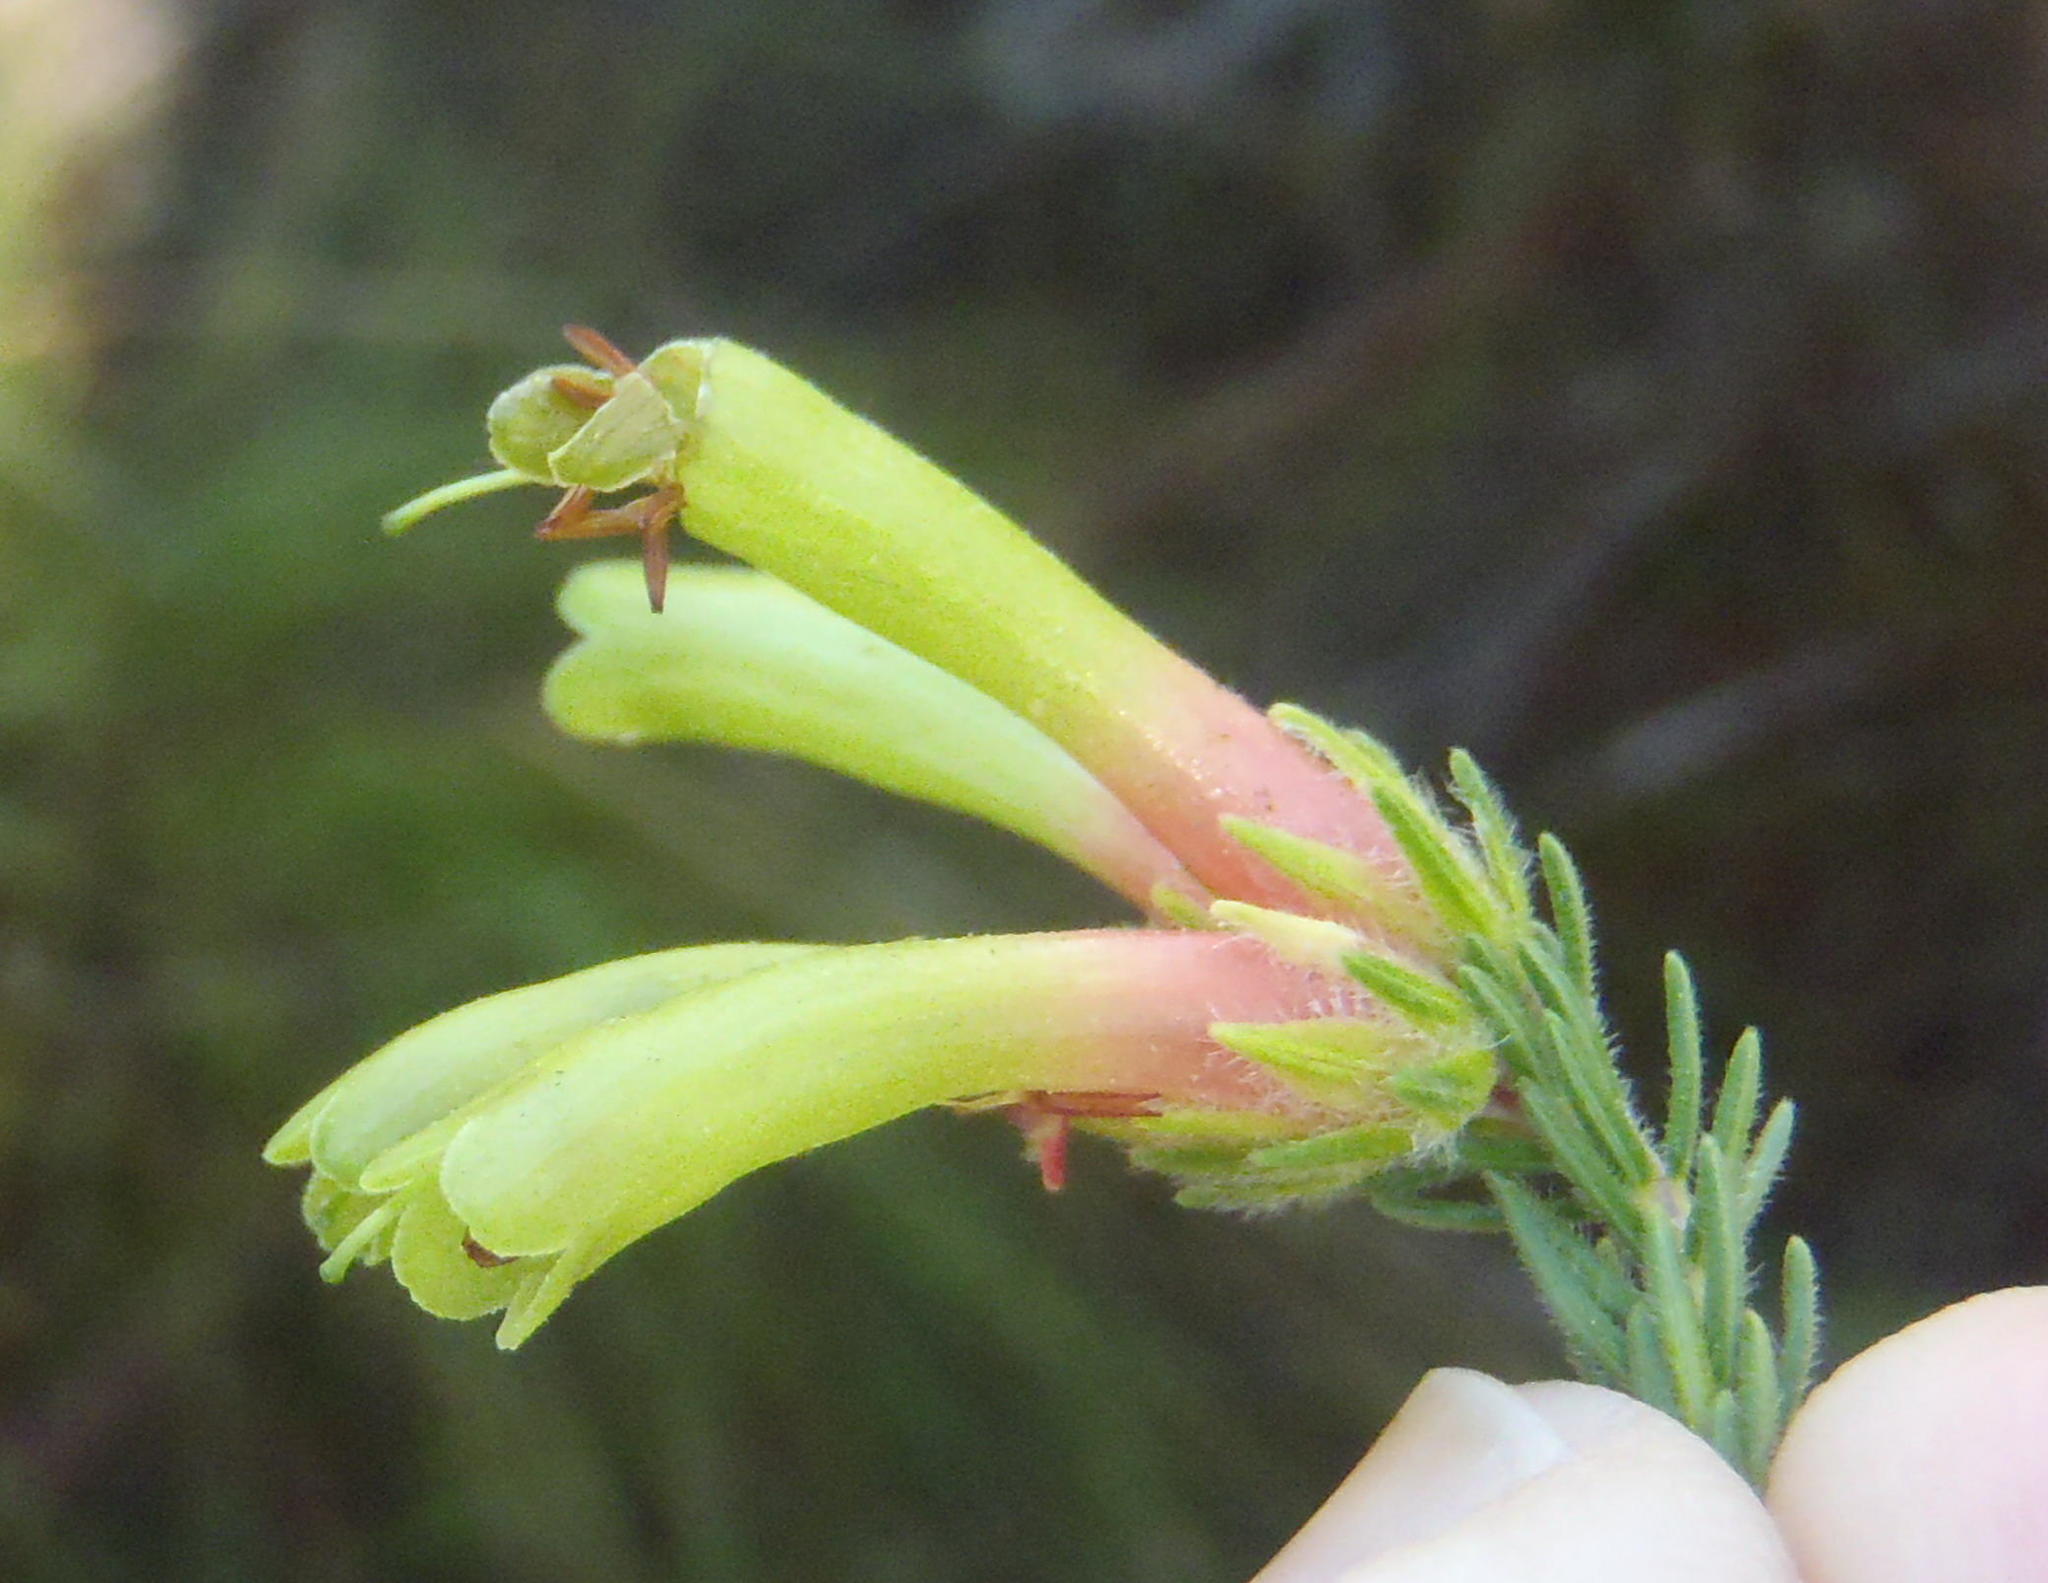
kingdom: Plantae
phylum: Tracheophyta
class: Magnoliopsida
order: Ericales
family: Ericaceae
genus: Erica
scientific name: Erica unicolor
